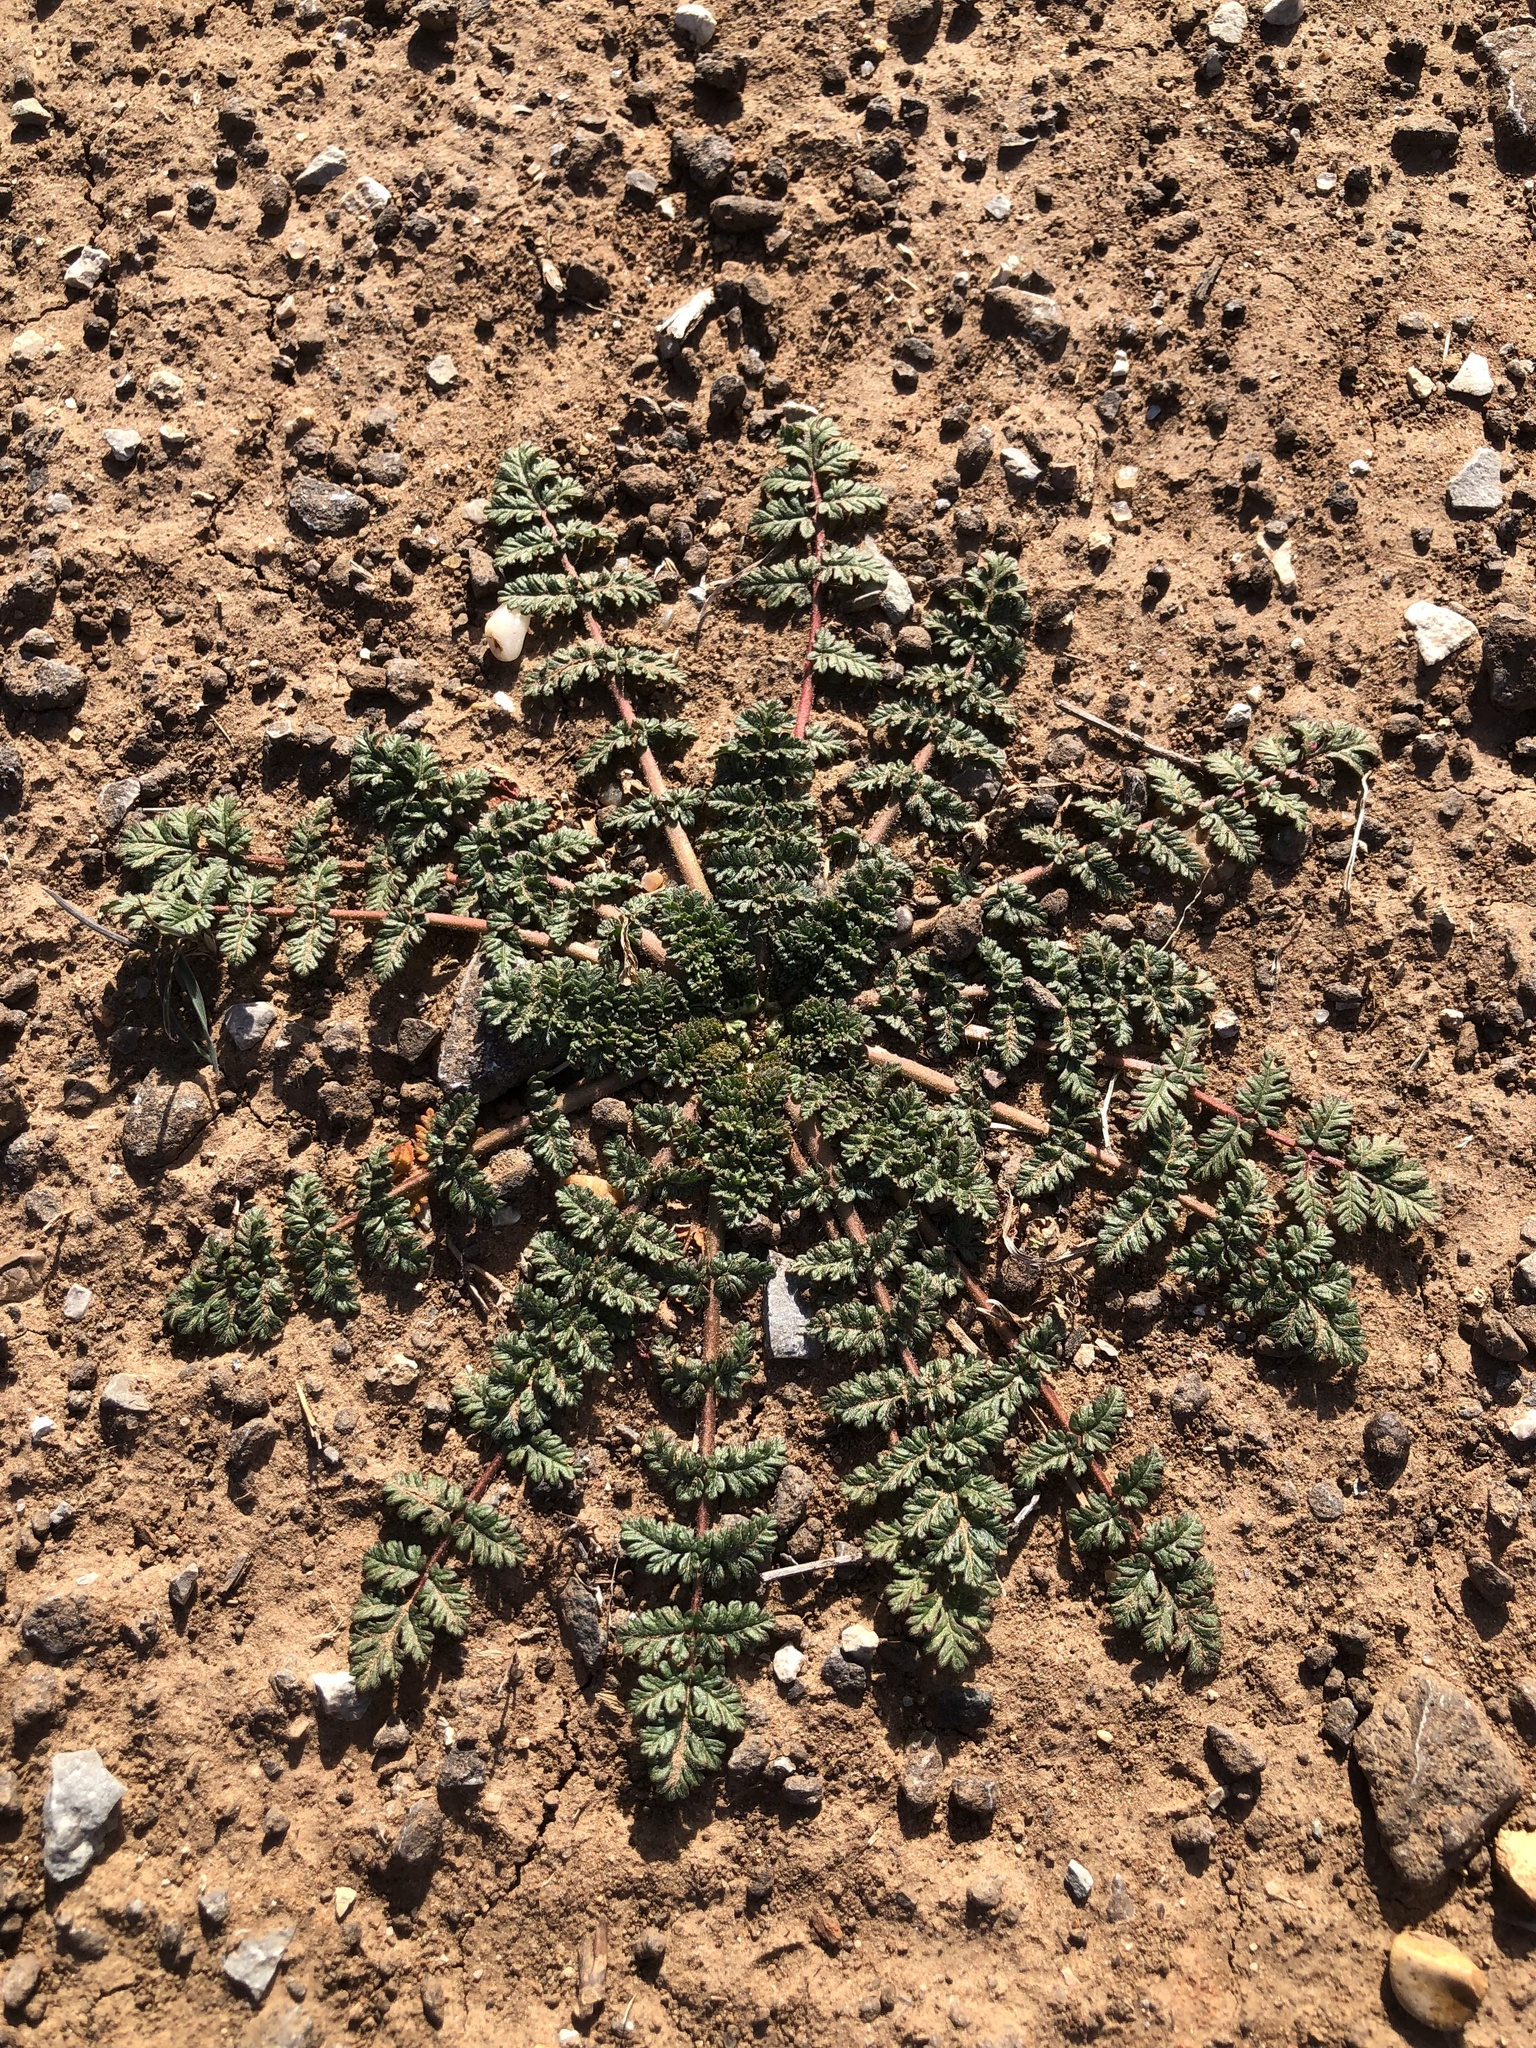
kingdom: Plantae
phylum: Tracheophyta
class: Magnoliopsida
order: Geraniales
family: Geraniaceae
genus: Erodium
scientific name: Erodium cicutarium
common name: Common stork's-bill
